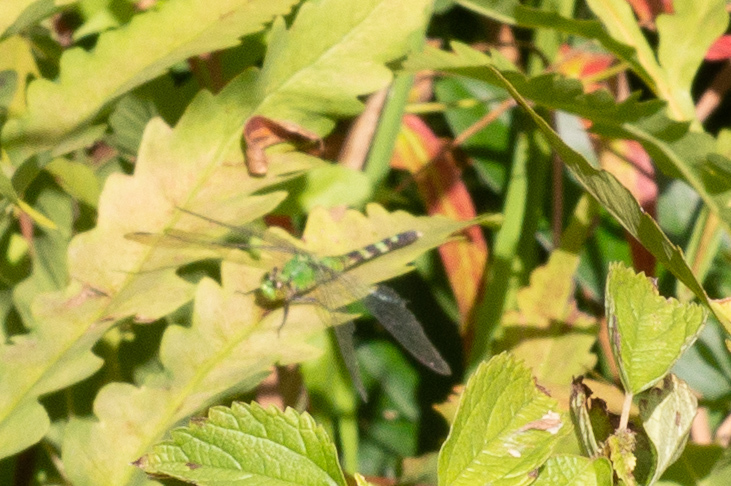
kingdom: Animalia
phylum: Arthropoda
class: Insecta
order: Odonata
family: Libellulidae
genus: Erythemis
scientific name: Erythemis simplicicollis
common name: Eastern pondhawk
